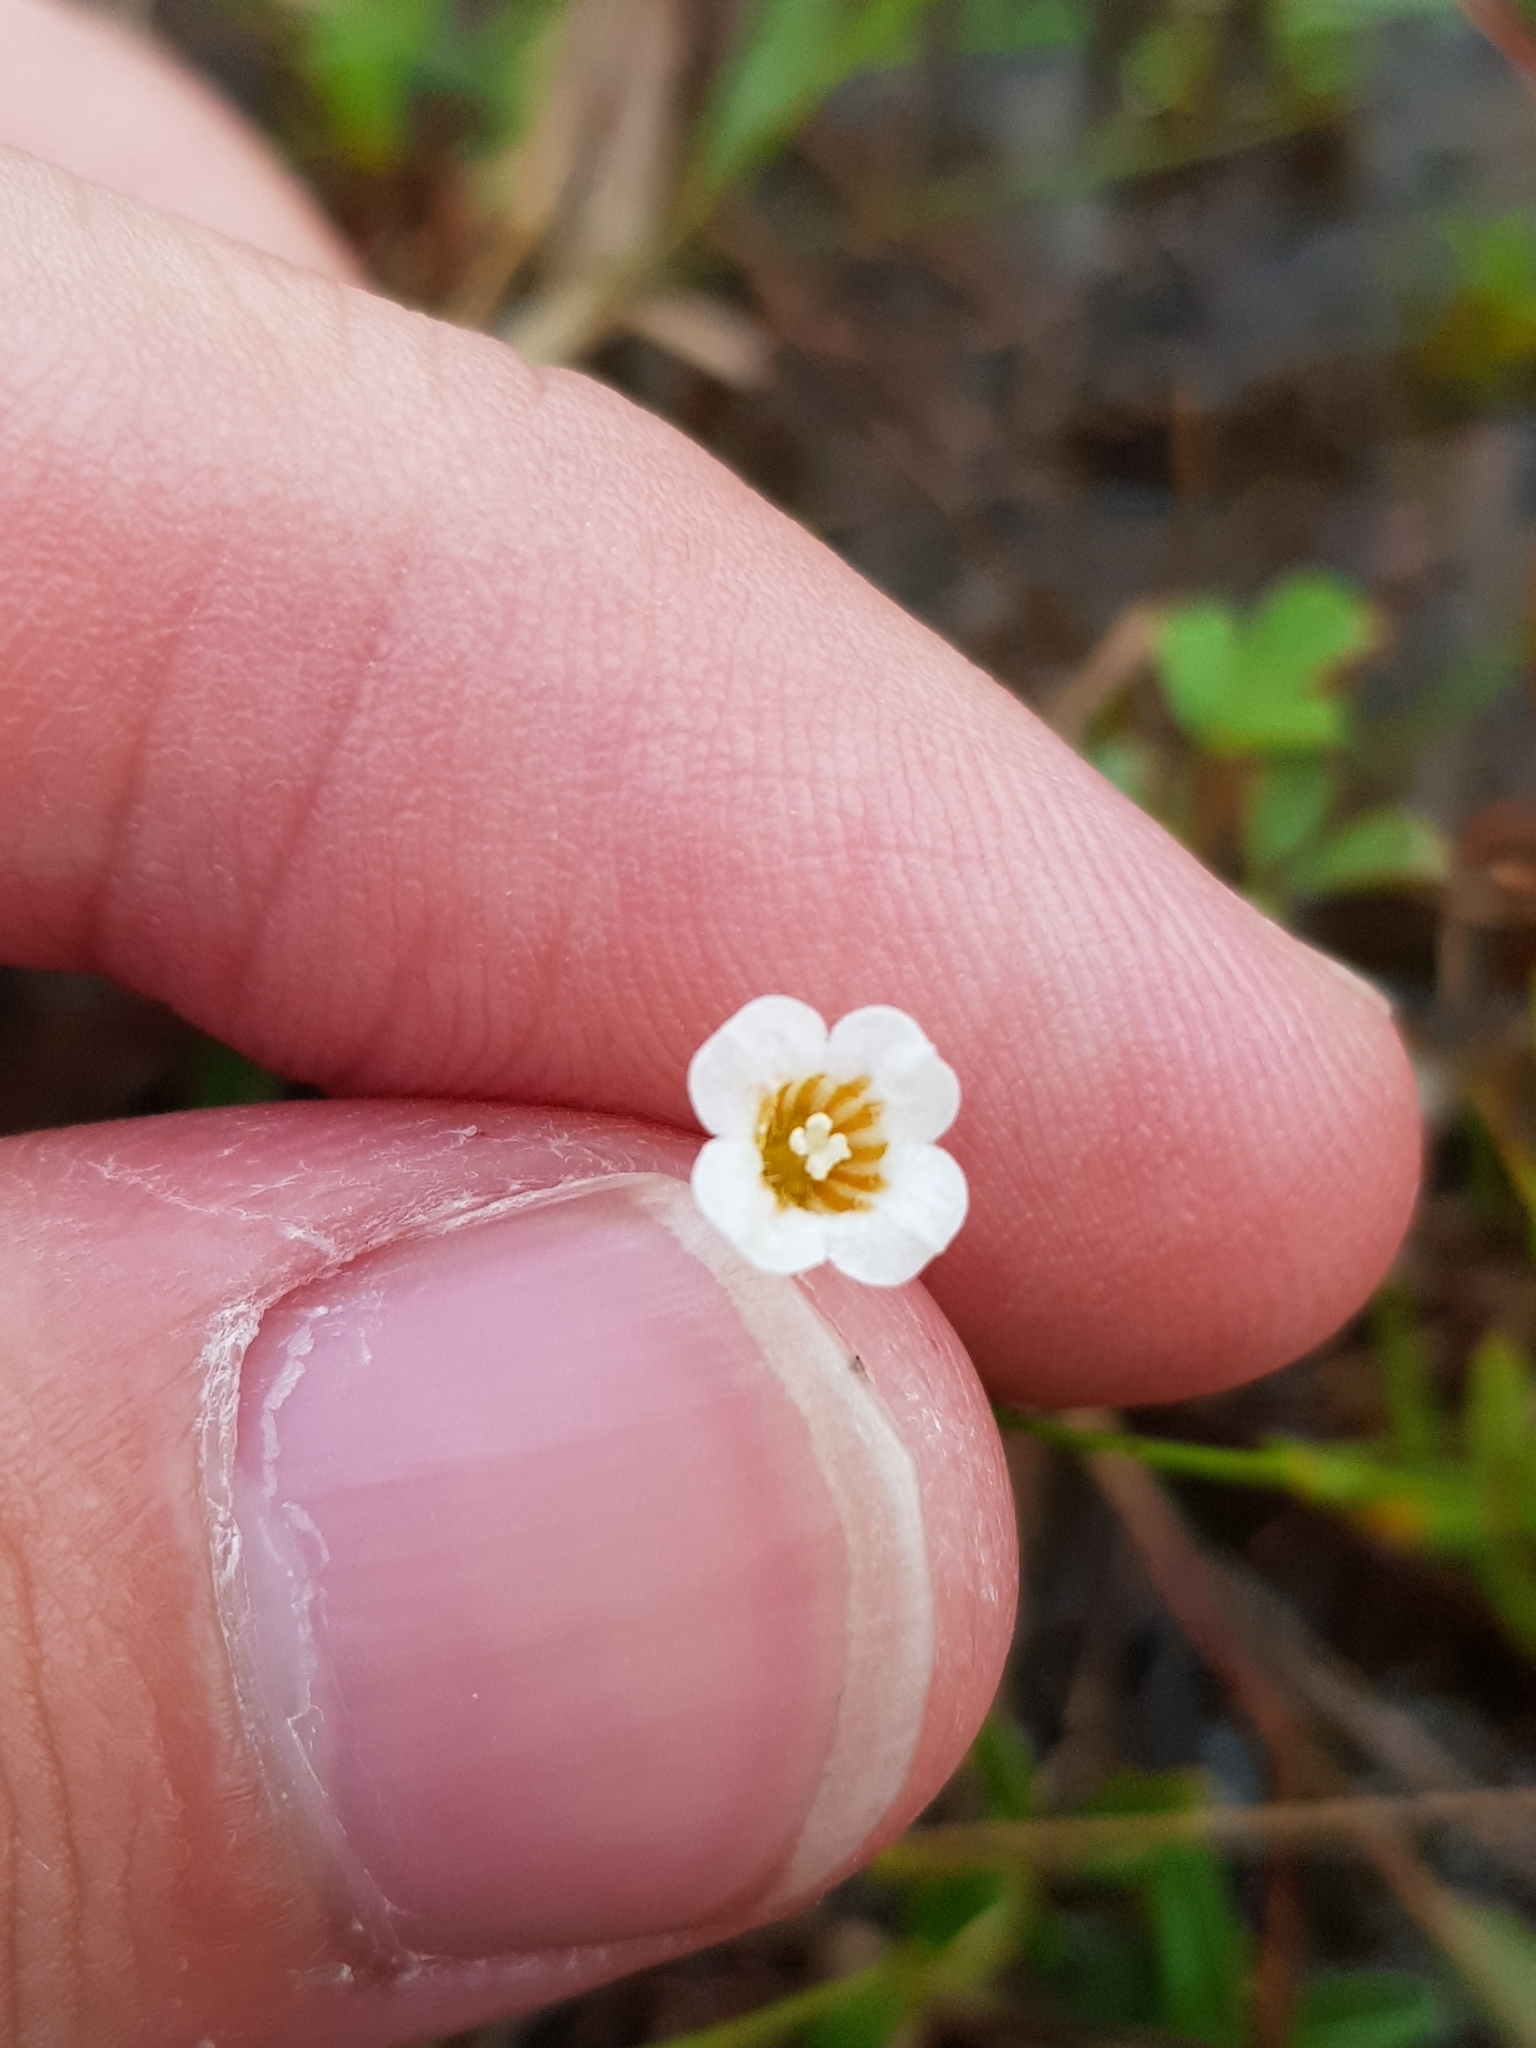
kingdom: Plantae
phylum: Tracheophyta
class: Magnoliopsida
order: Gentianales
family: Loganiaceae
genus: Mitrasacme
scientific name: Mitrasacme pygmaea
